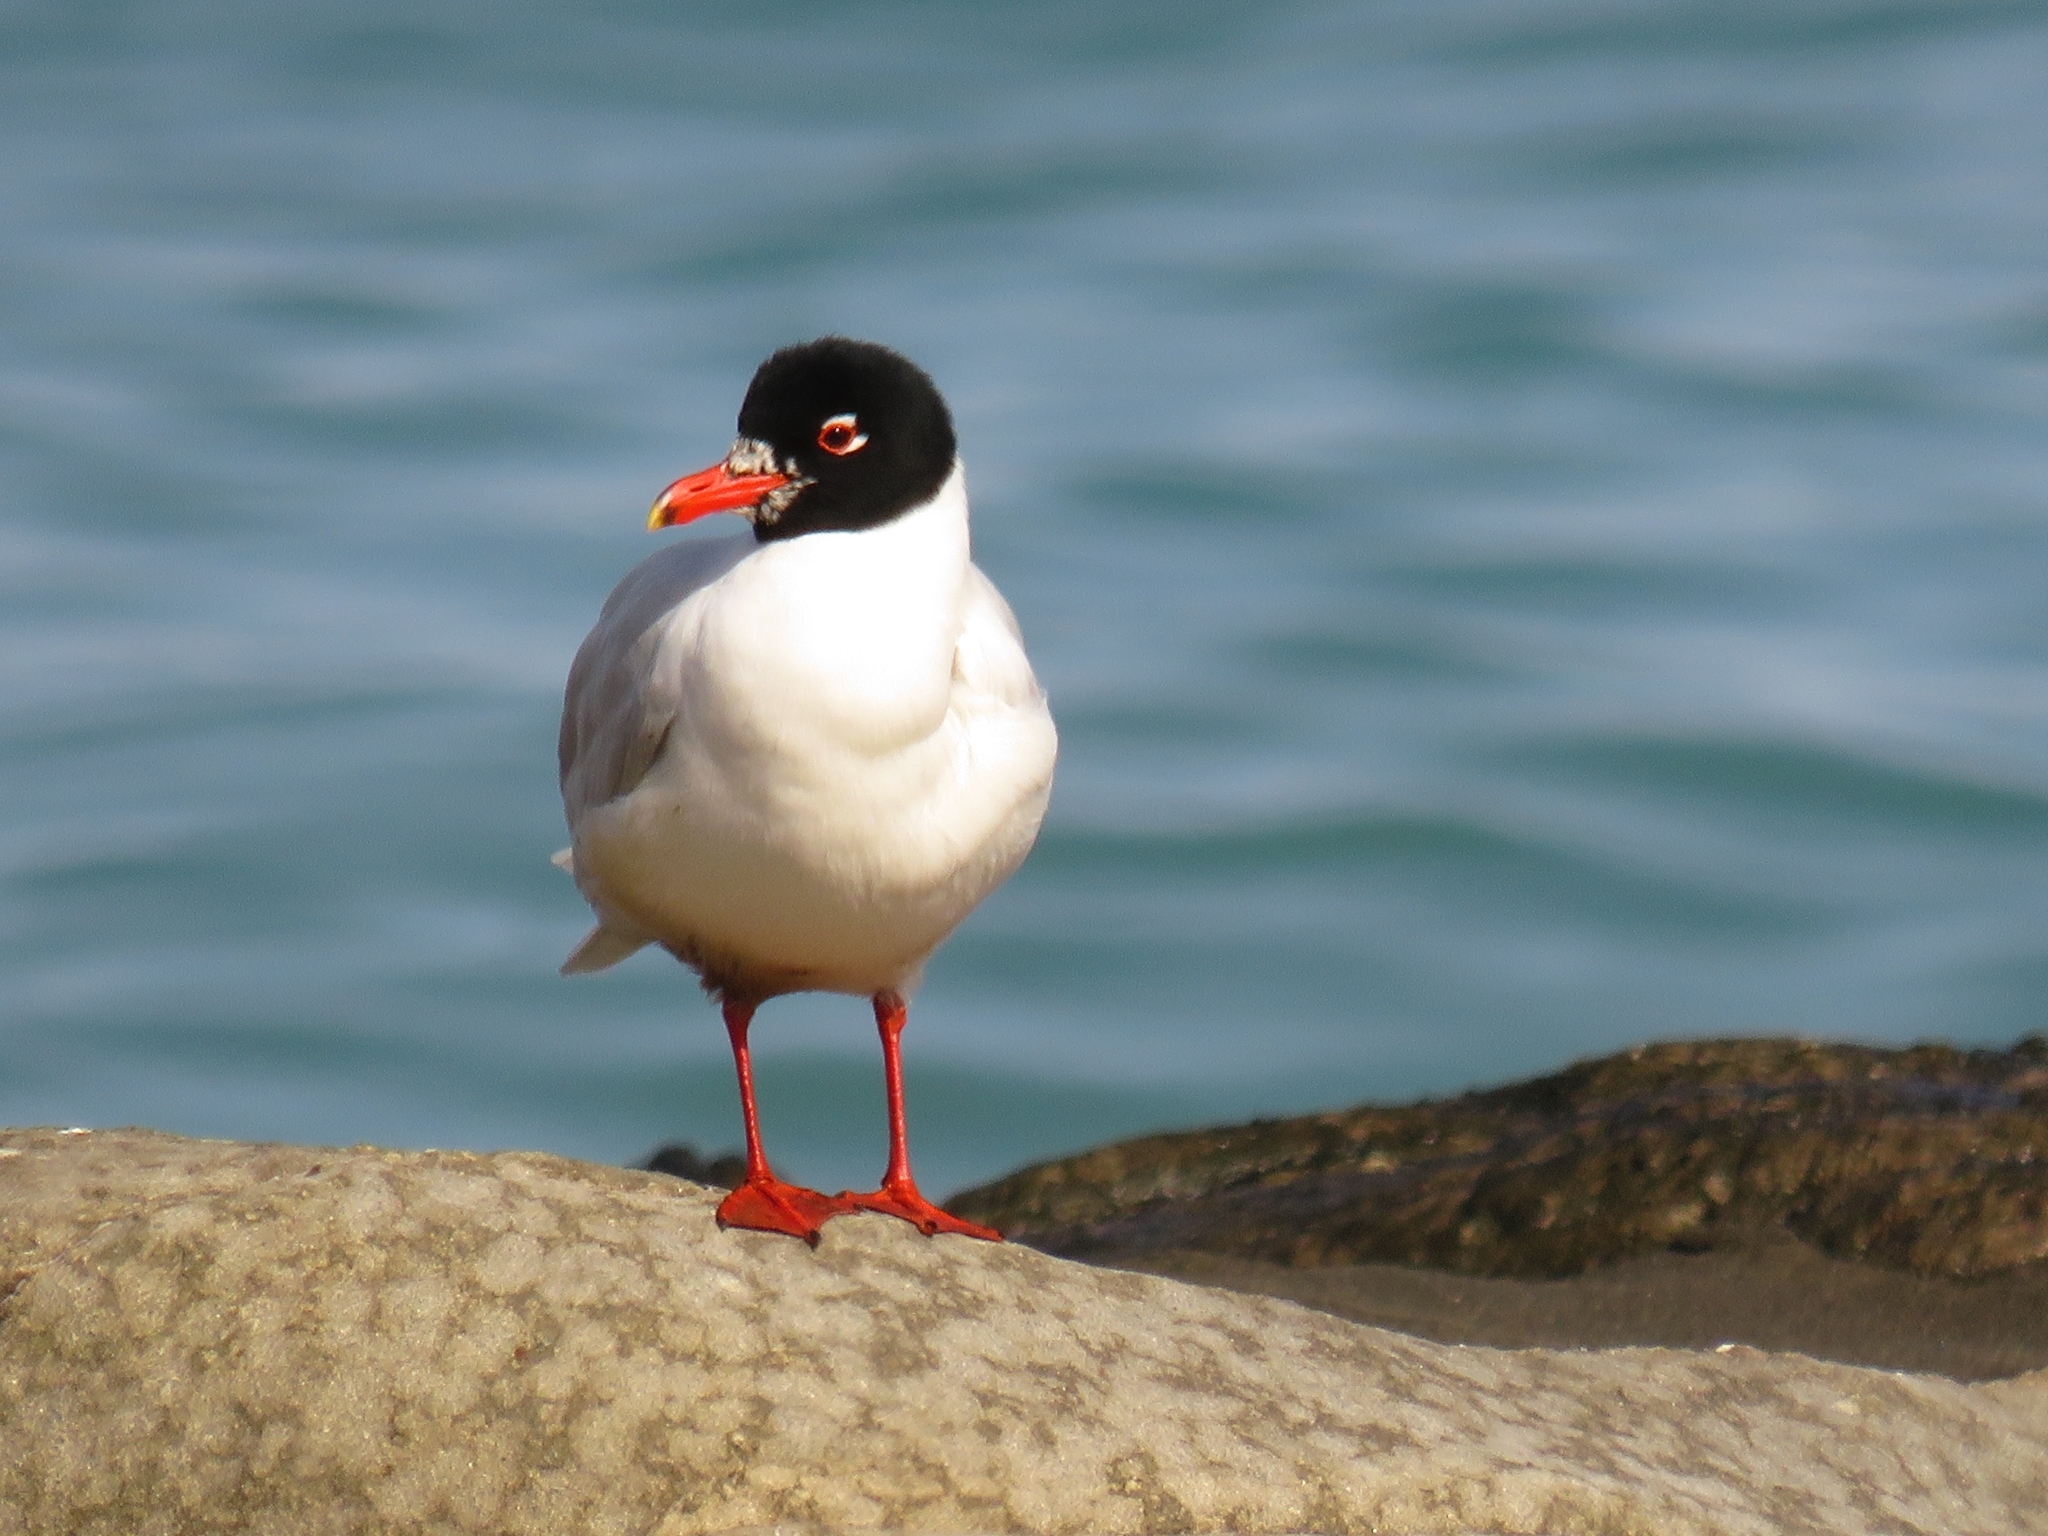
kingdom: Animalia
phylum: Chordata
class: Aves
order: Charadriiformes
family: Laridae
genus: Ichthyaetus
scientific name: Ichthyaetus melanocephalus
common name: Mediterranean gull
